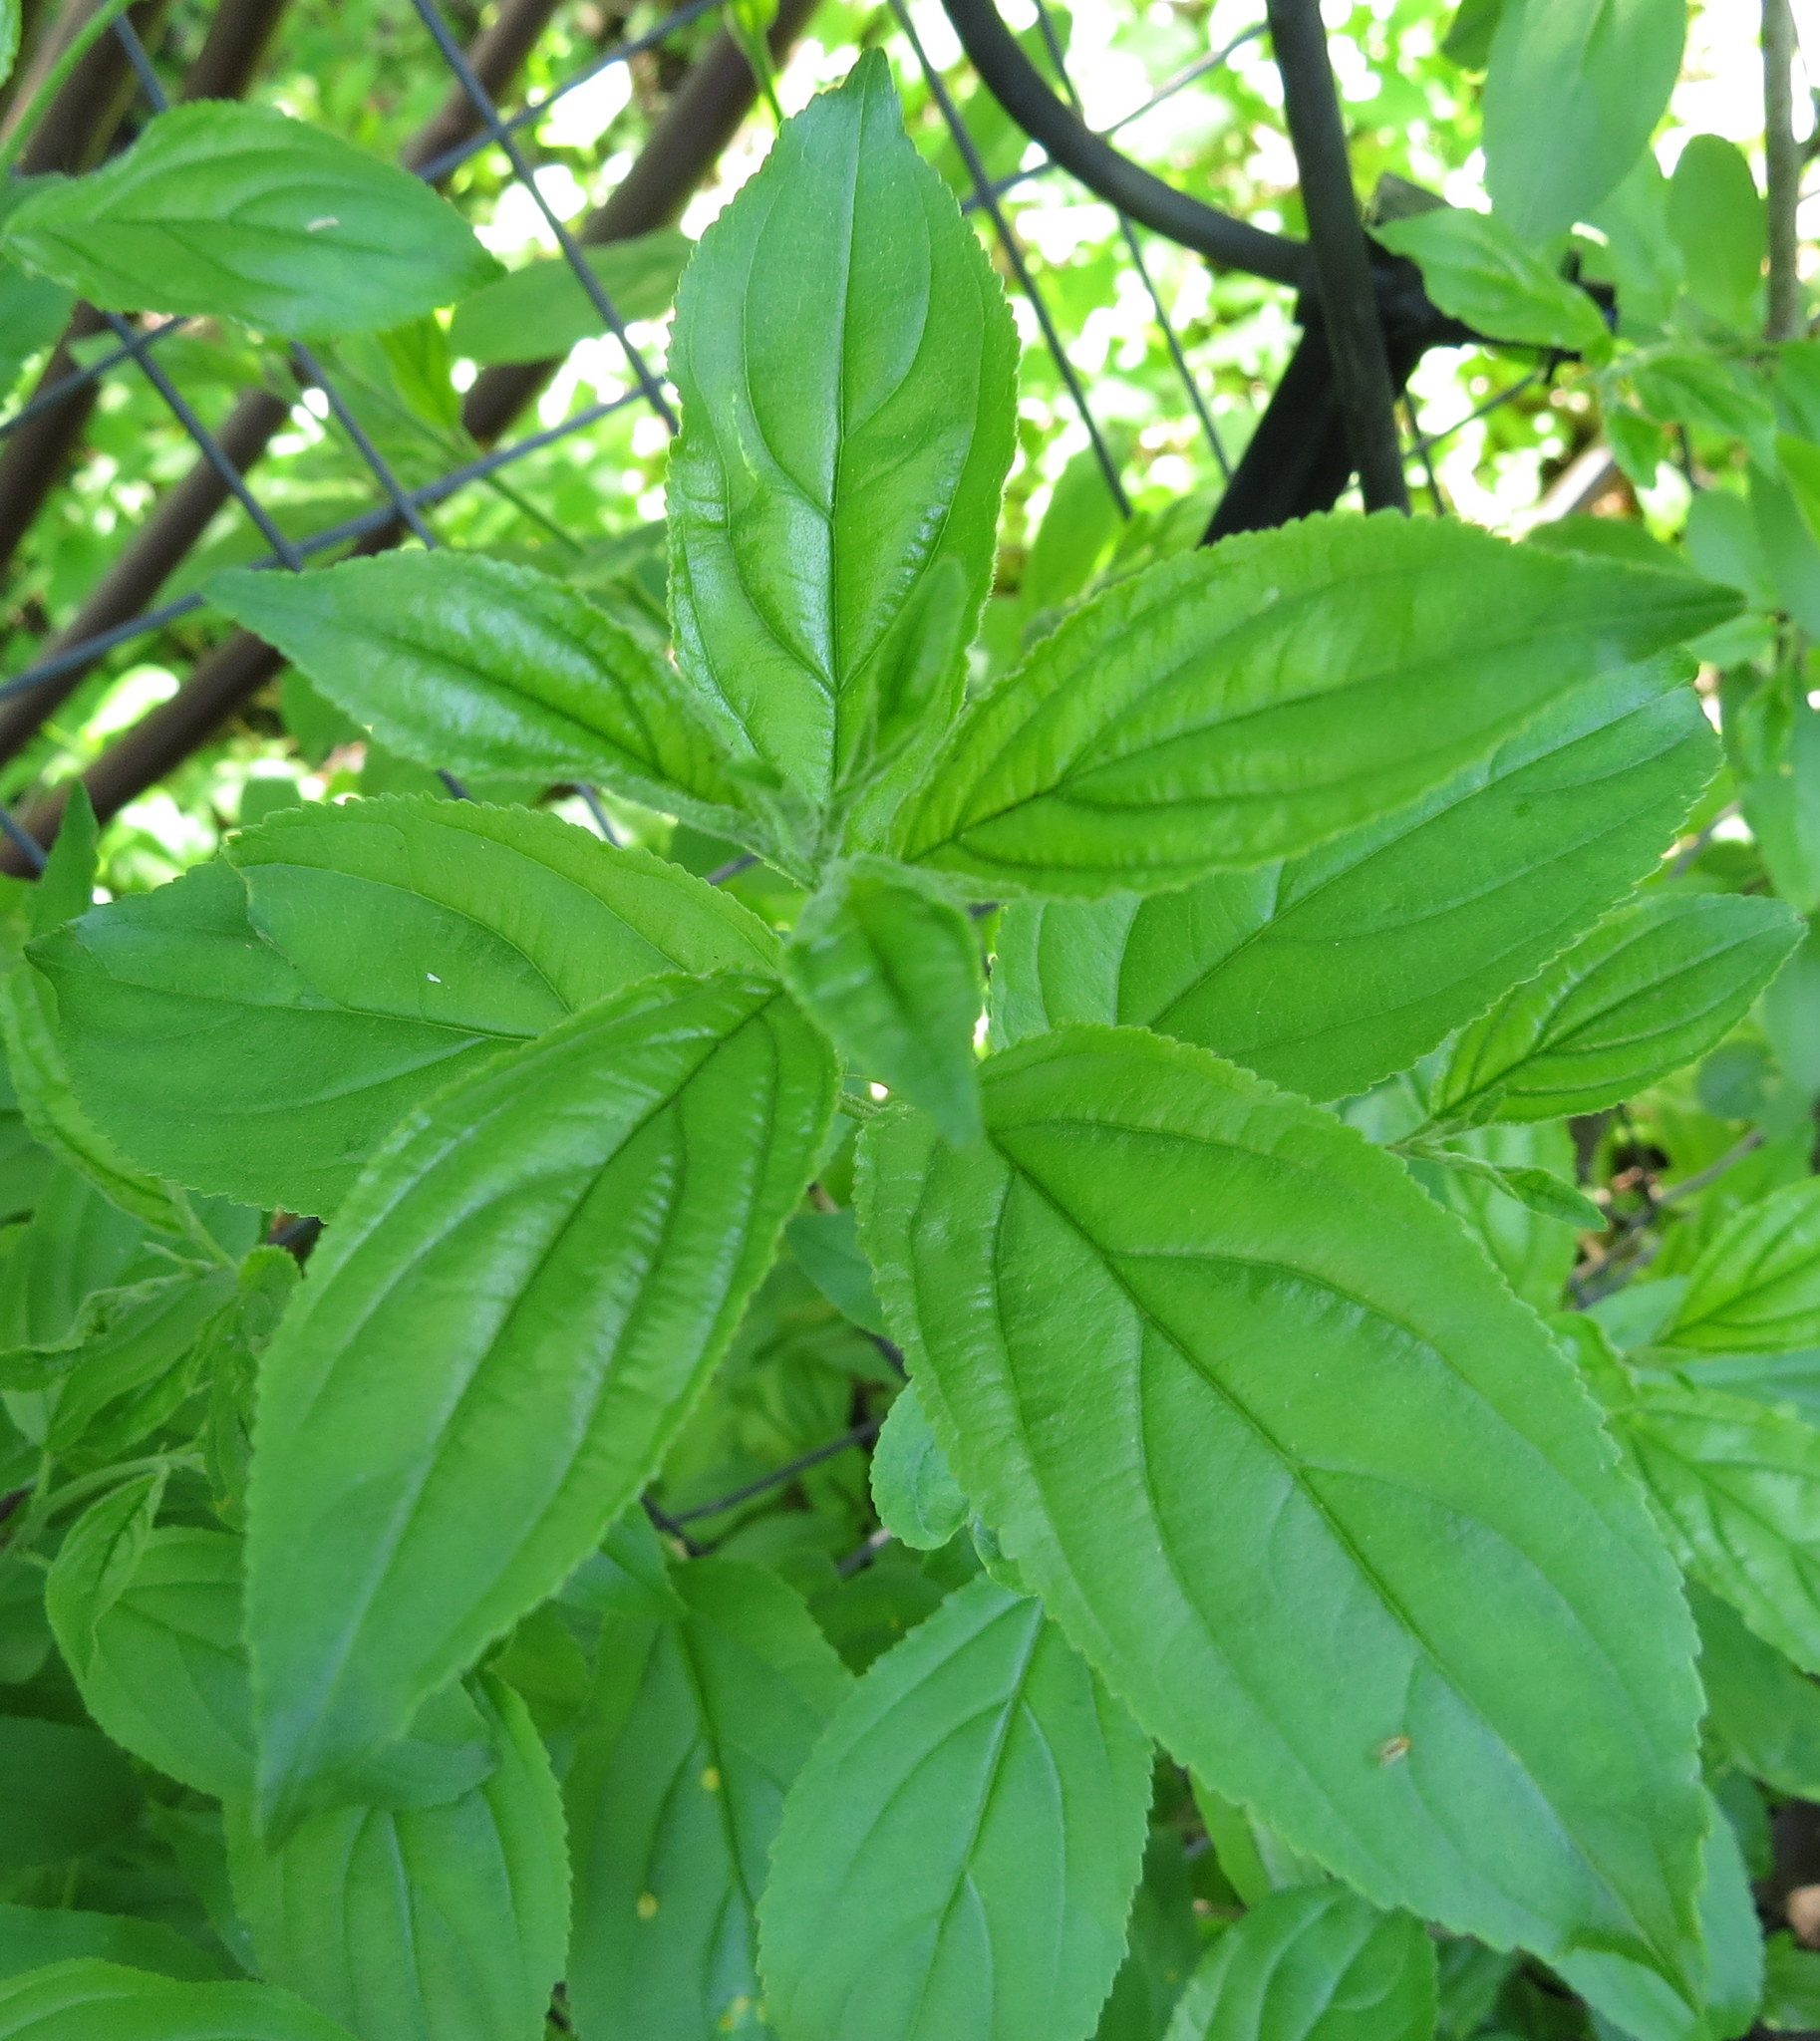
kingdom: Plantae
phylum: Tracheophyta
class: Magnoliopsida
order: Rosales
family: Rhamnaceae
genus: Rhamnus
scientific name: Rhamnus cathartica
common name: Common buckthorn
